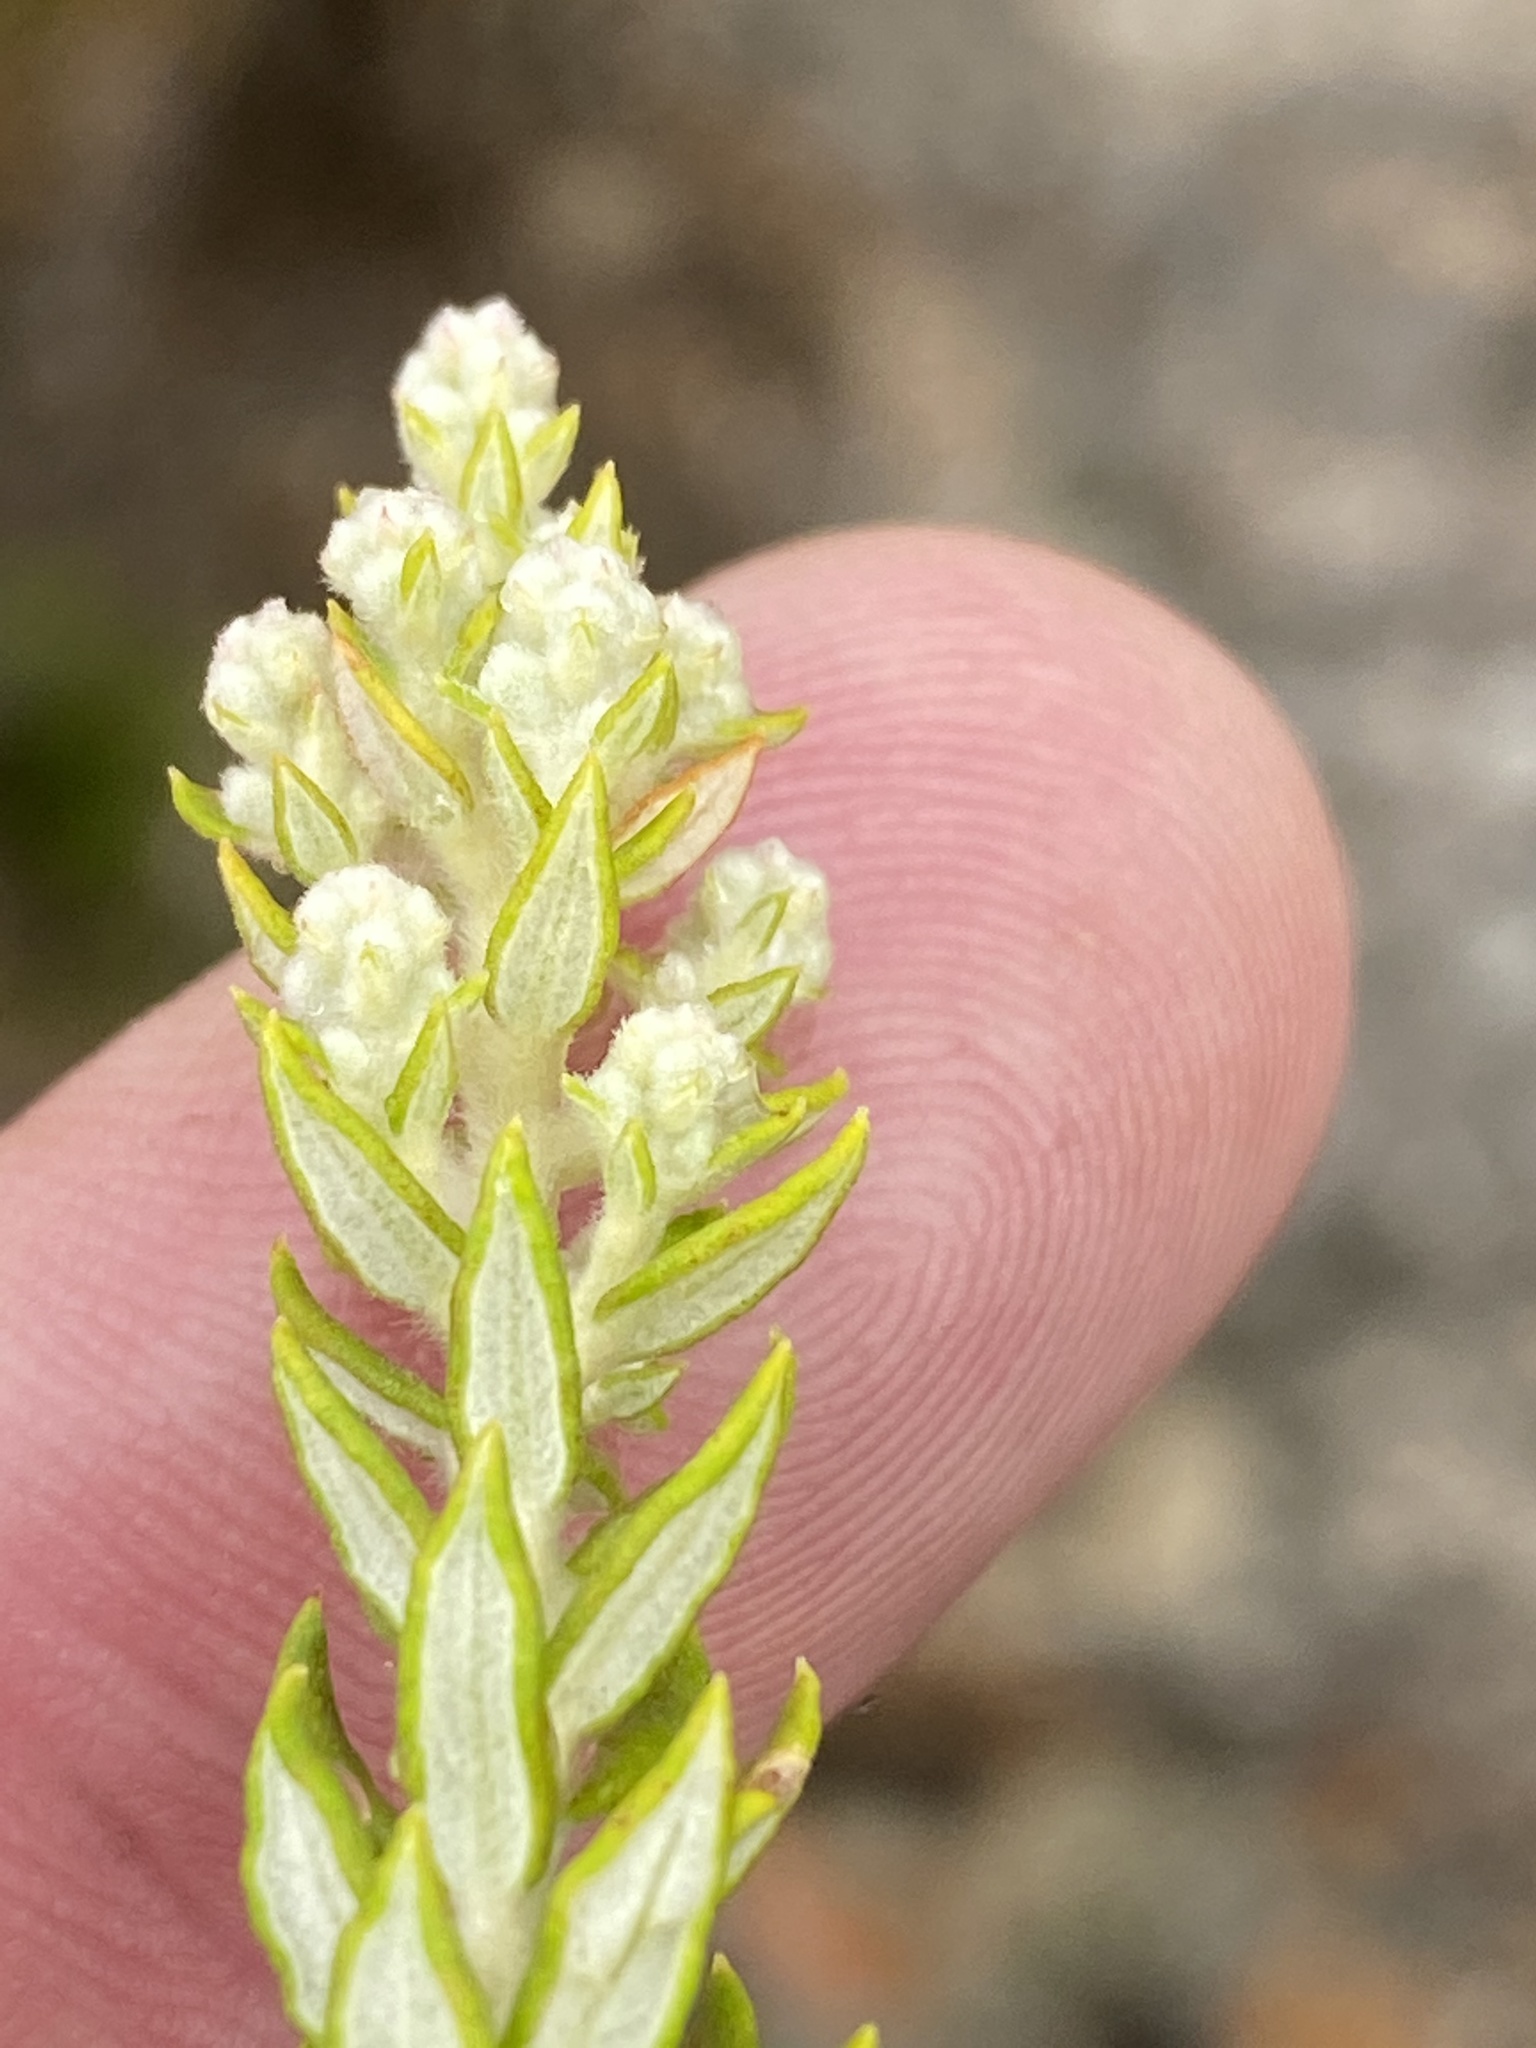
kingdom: Plantae
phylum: Tracheophyta
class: Magnoliopsida
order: Rosales
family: Rhamnaceae
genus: Phylica
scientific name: Phylica paniculata
